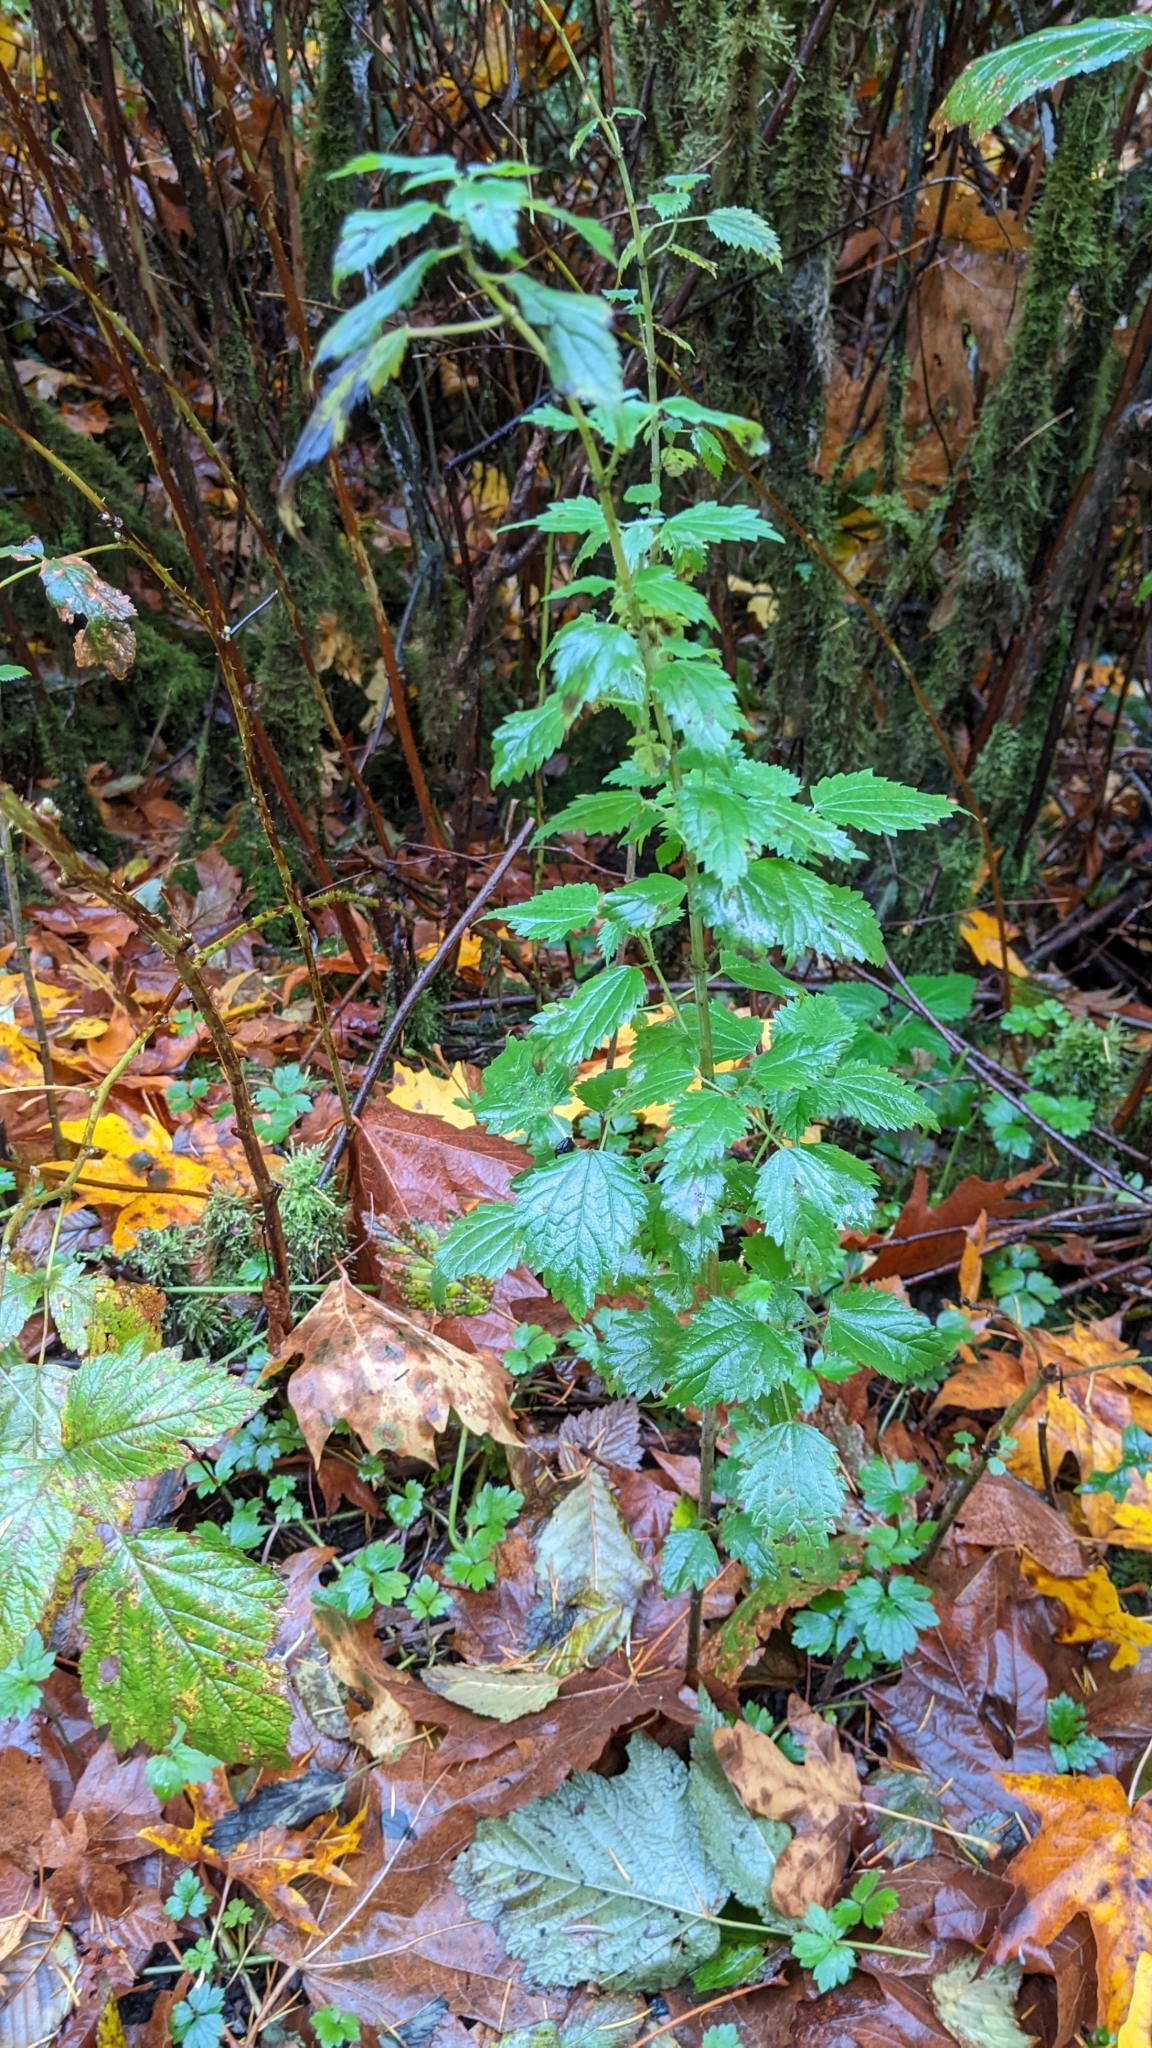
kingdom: Plantae
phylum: Tracheophyta
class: Magnoliopsida
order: Rosales
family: Urticaceae
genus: Urtica
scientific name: Urtica dioica
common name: Common nettle
